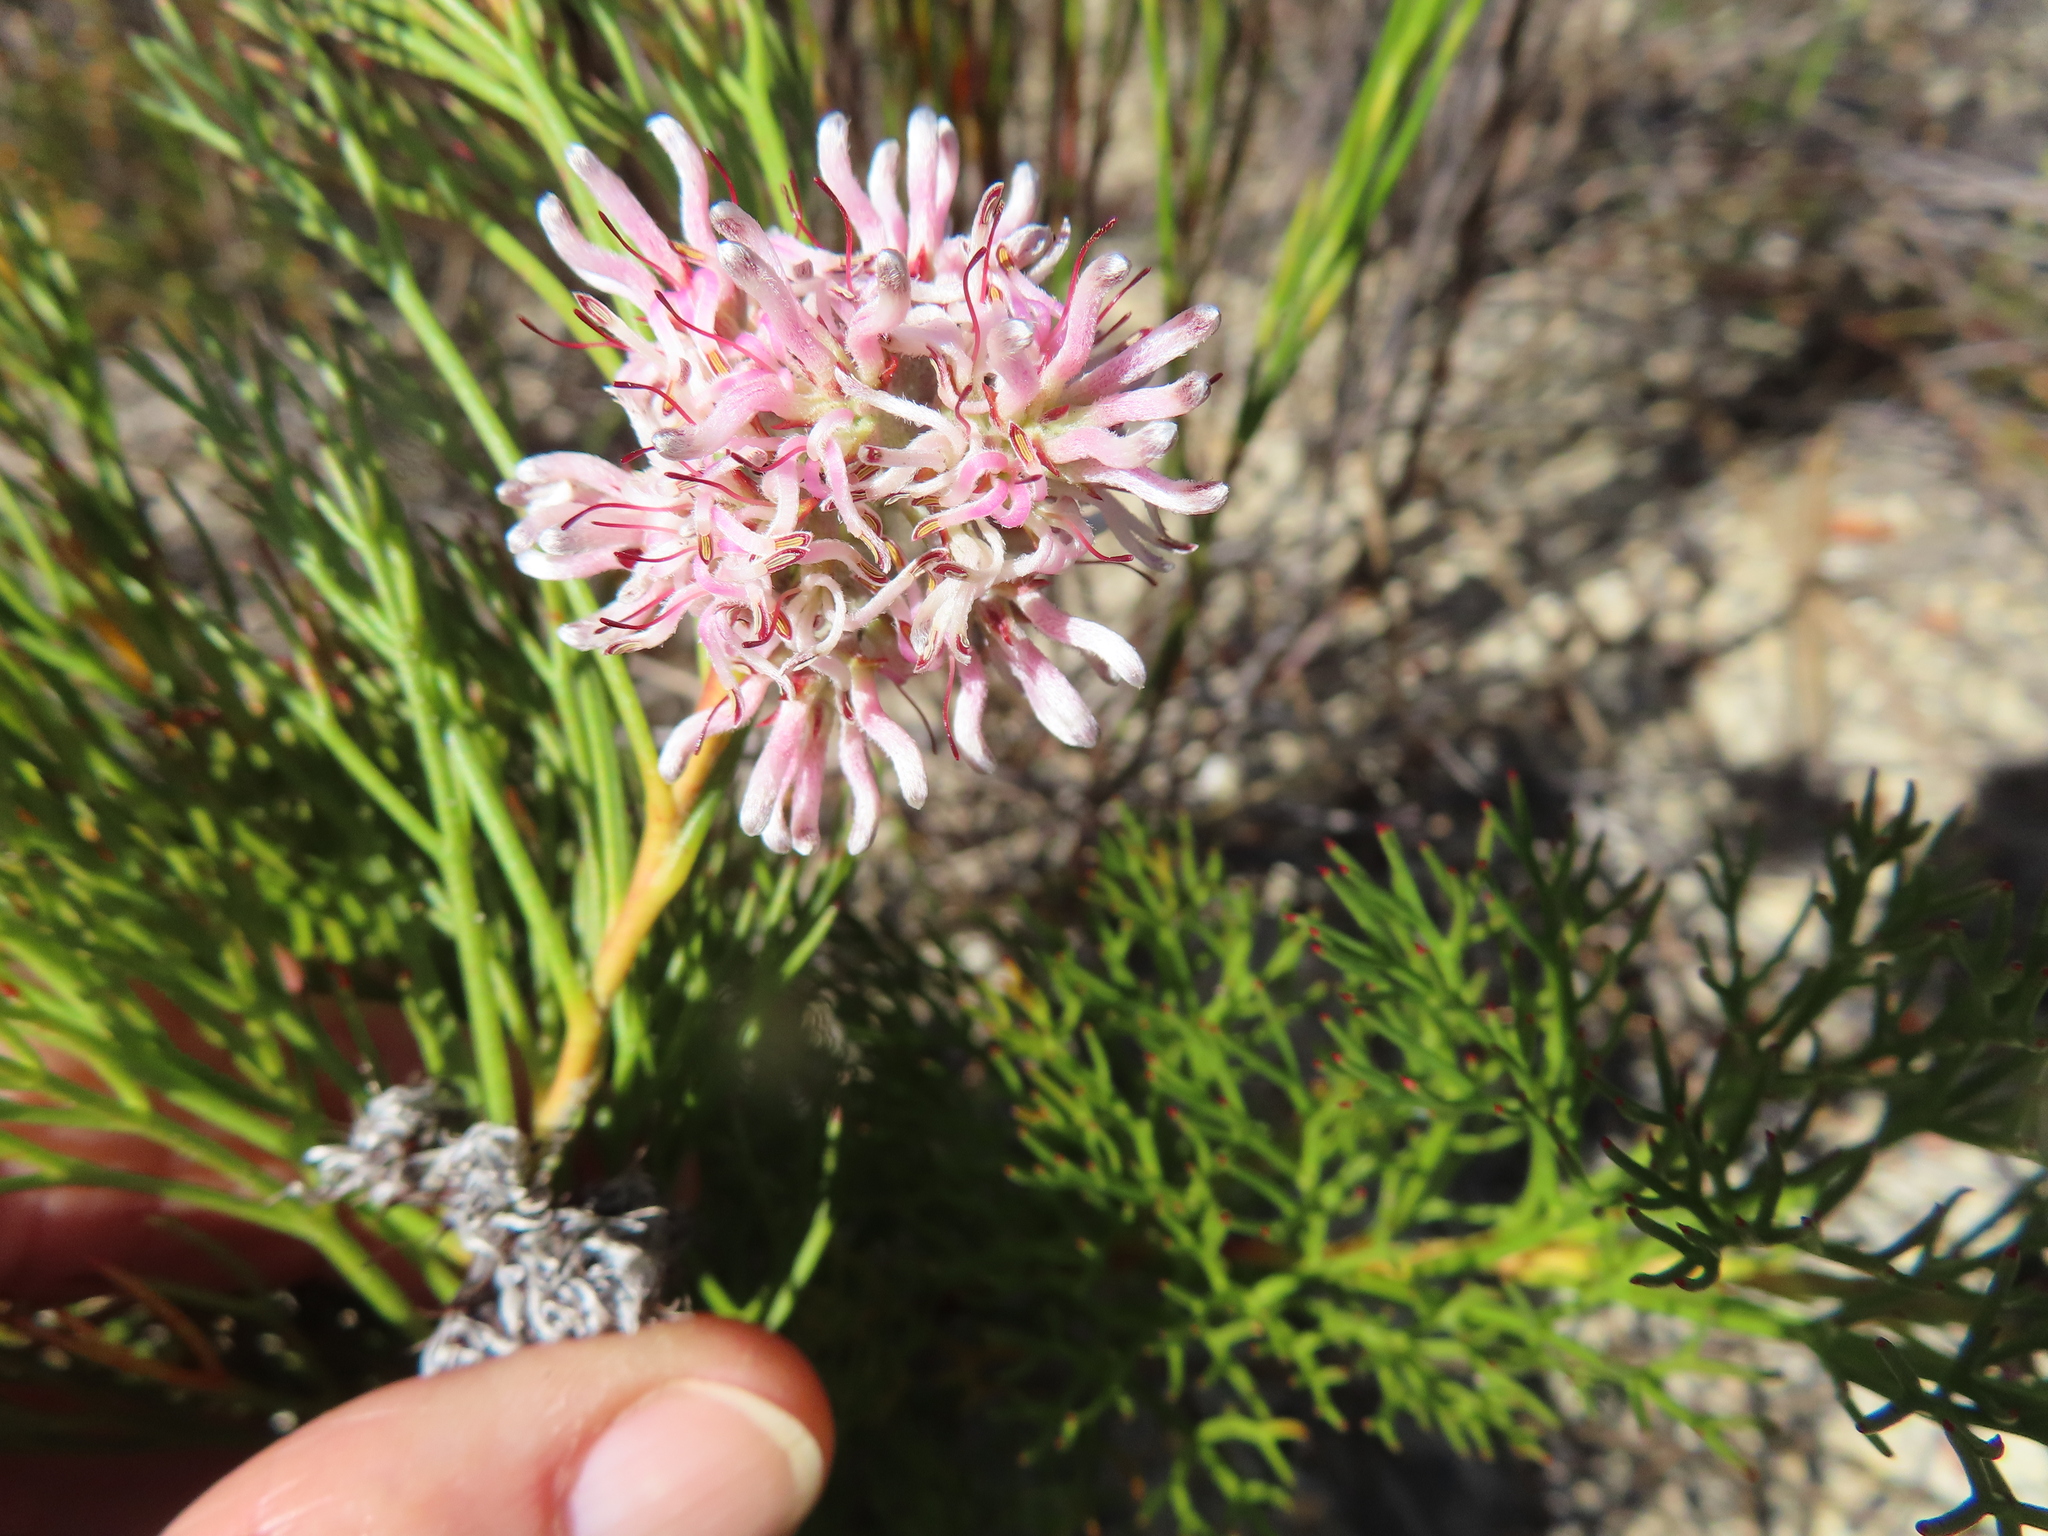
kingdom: Plantae
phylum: Tracheophyta
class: Magnoliopsida
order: Proteales
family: Proteaceae
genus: Serruria
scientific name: Serruria rubricaulis
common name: Red-stem spiderhead
